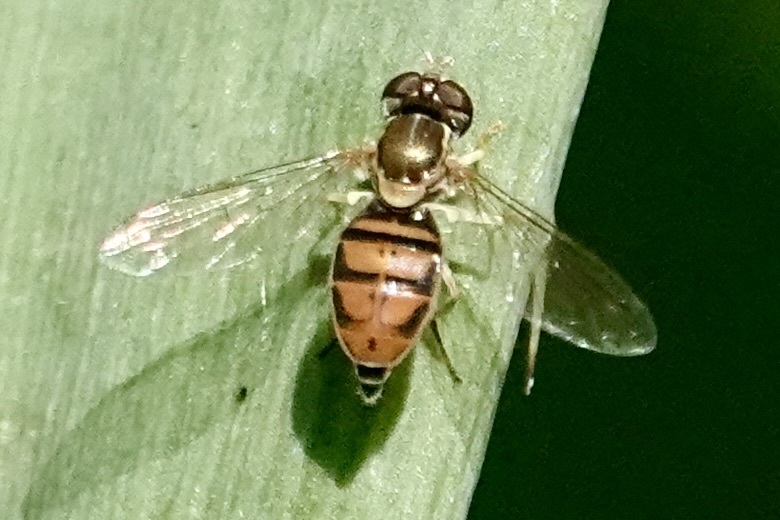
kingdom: Animalia
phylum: Arthropoda
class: Insecta
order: Diptera
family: Syrphidae
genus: Toxomerus
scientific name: Toxomerus marginatus
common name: Syrphid fly
